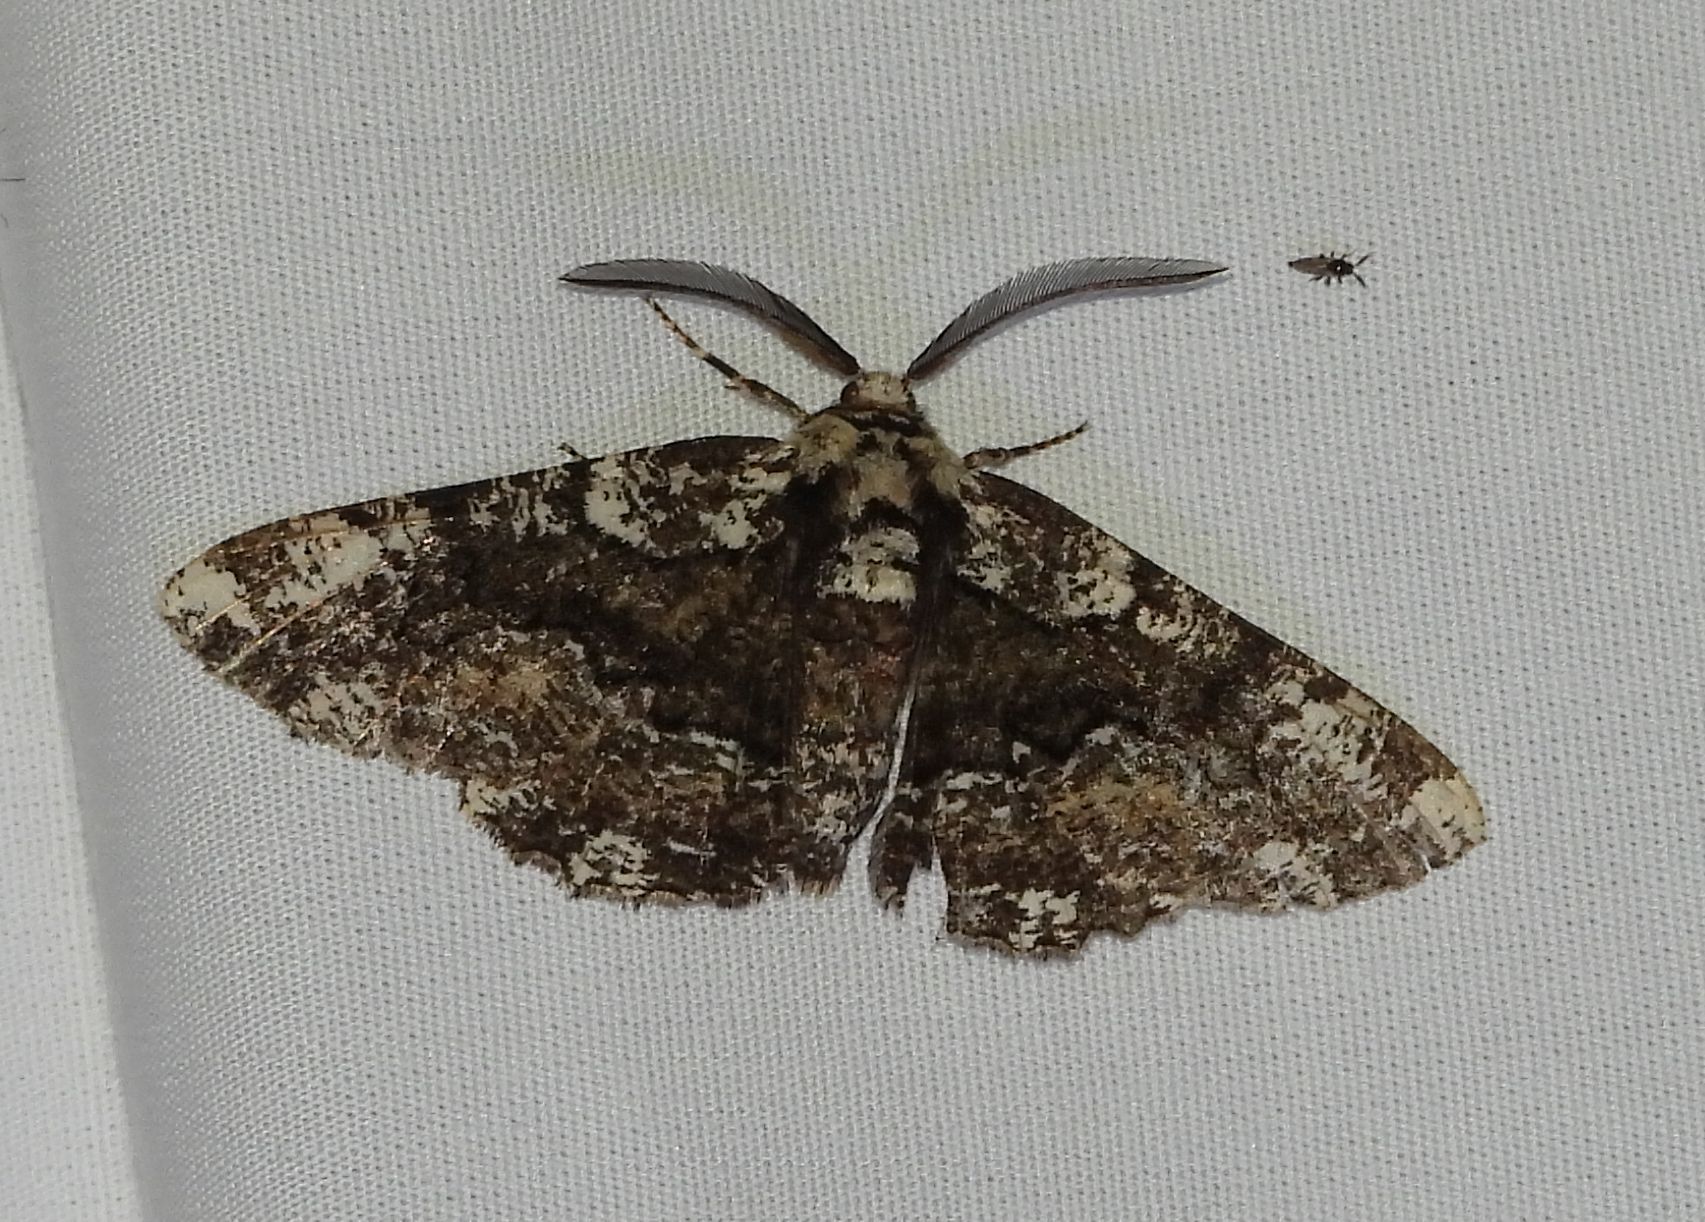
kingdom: Animalia
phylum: Arthropoda
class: Insecta
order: Lepidoptera
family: Geometridae
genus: Phaeoura
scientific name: Phaeoura quernaria
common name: Oak beauty
